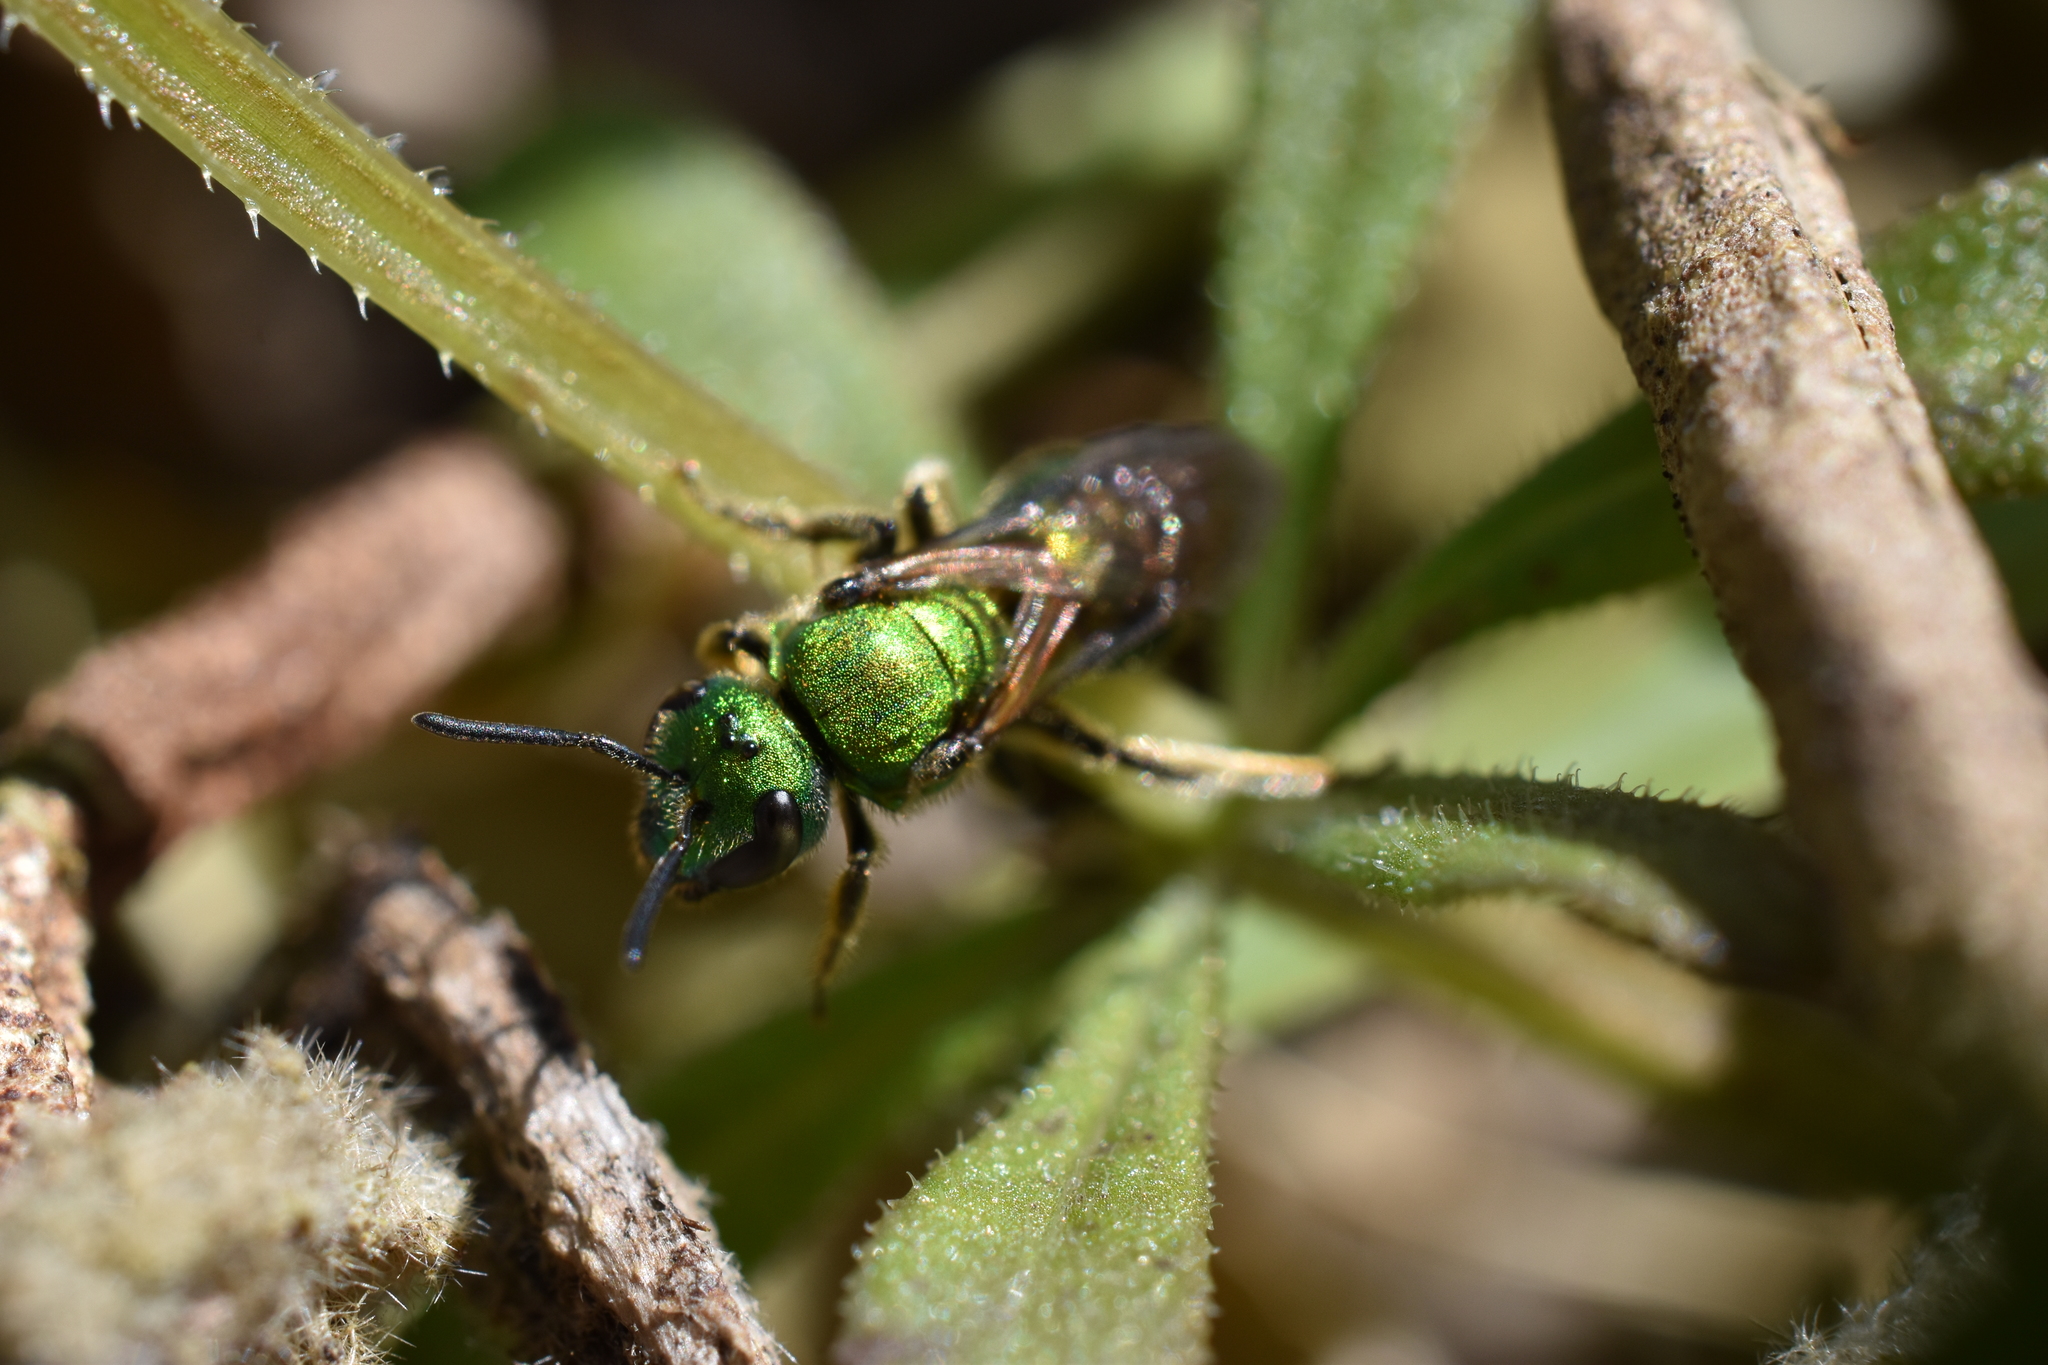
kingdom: Animalia
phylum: Arthropoda
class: Insecta
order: Hymenoptera
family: Halictidae
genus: Augochlora
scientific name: Augochlora pura
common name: Pure green sweat bee
